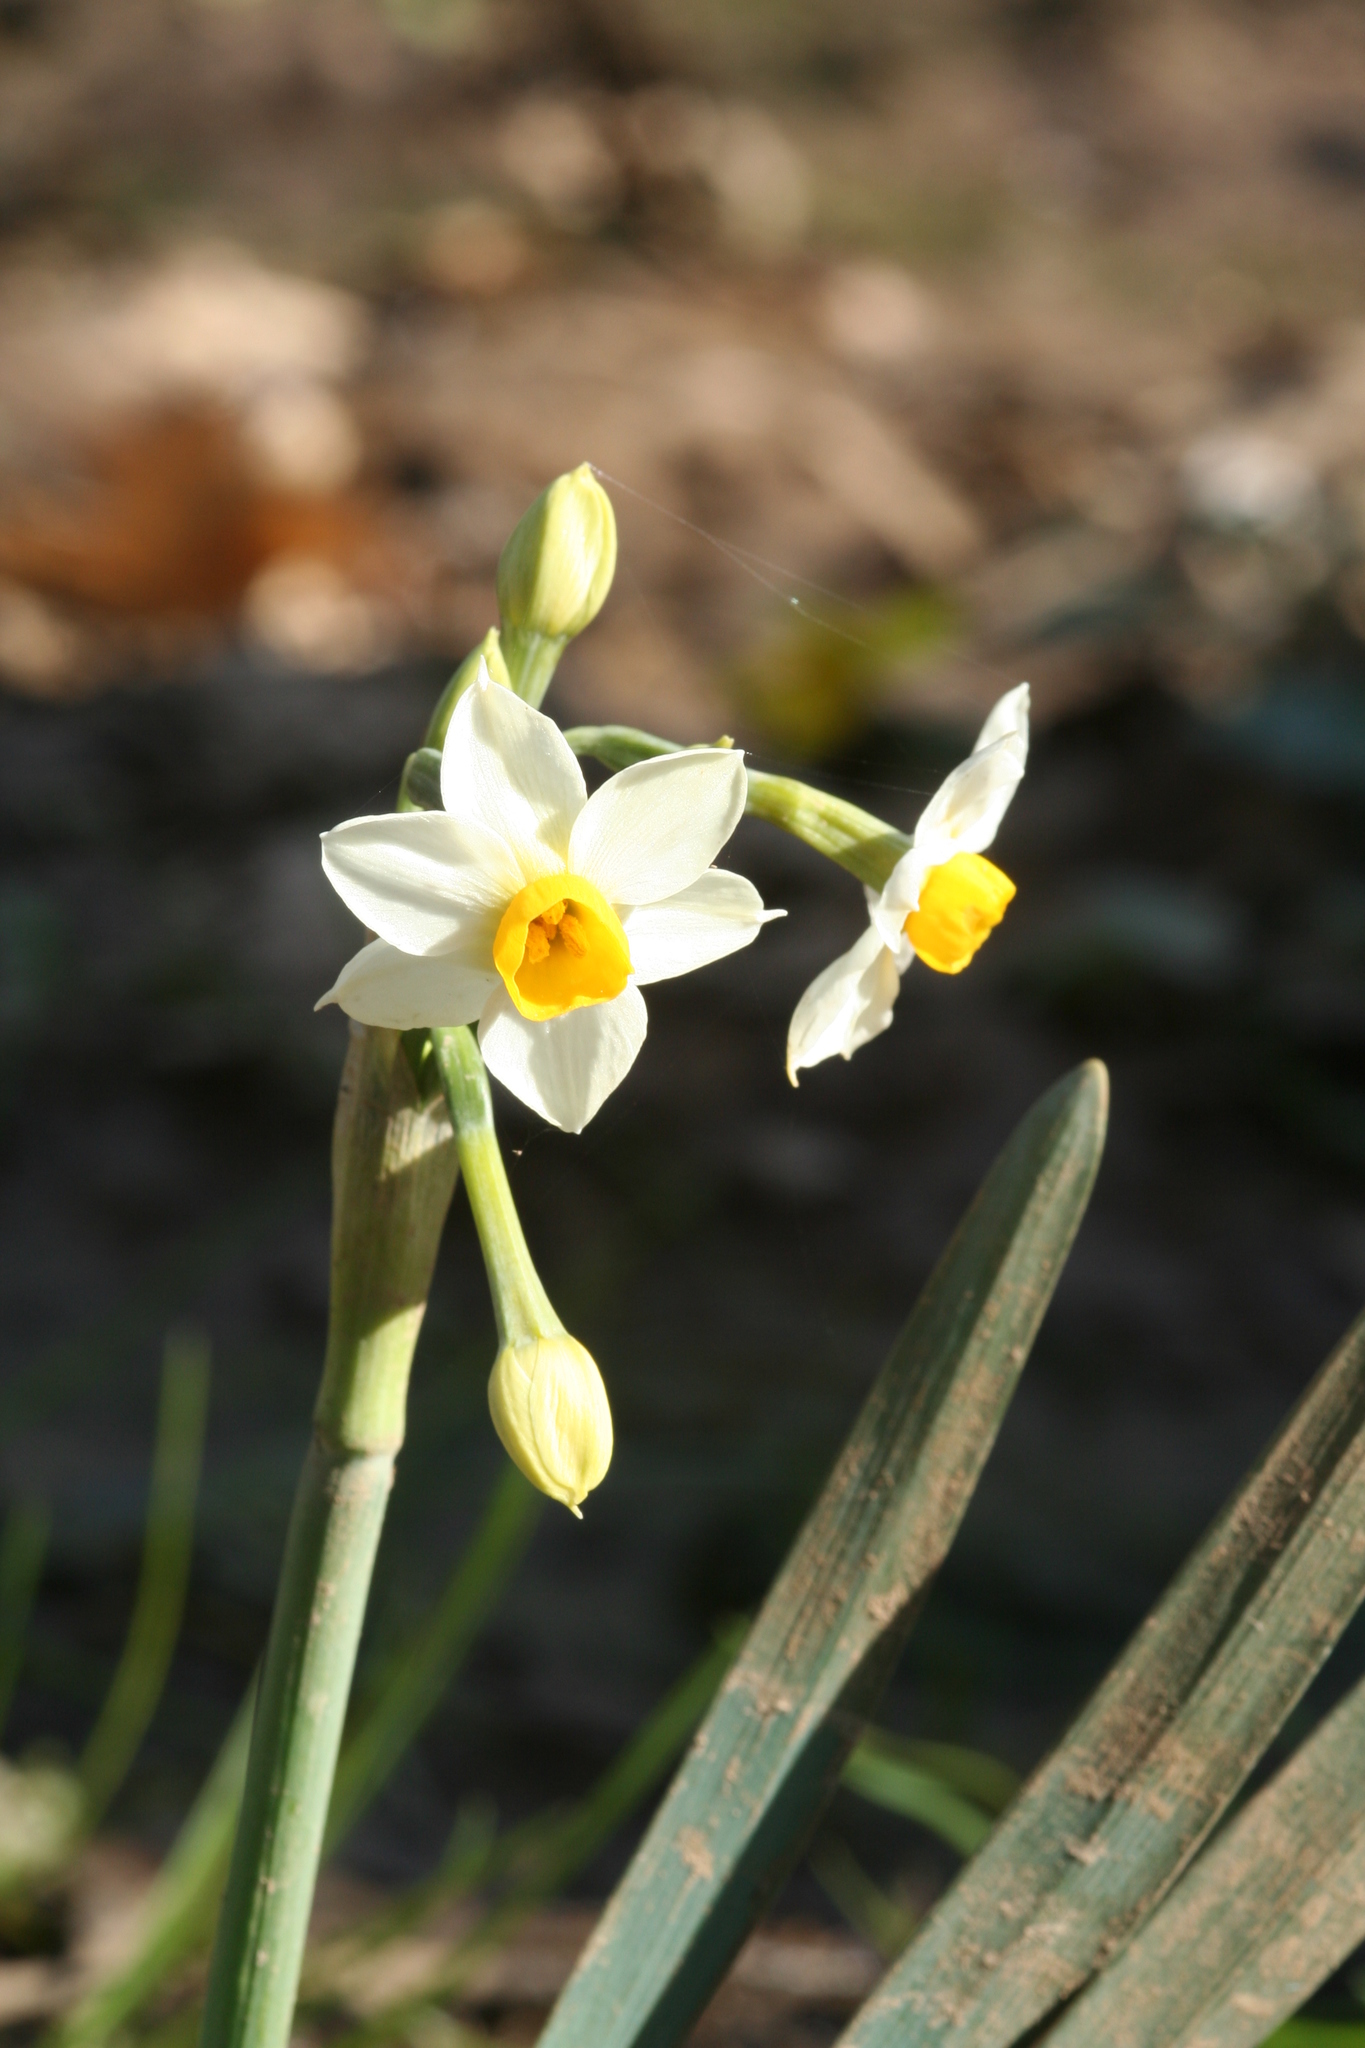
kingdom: Plantae
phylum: Tracheophyta
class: Liliopsida
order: Asparagales
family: Amaryllidaceae
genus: Narcissus
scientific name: Narcissus tazetta
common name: Bunch-flowered daffodil
